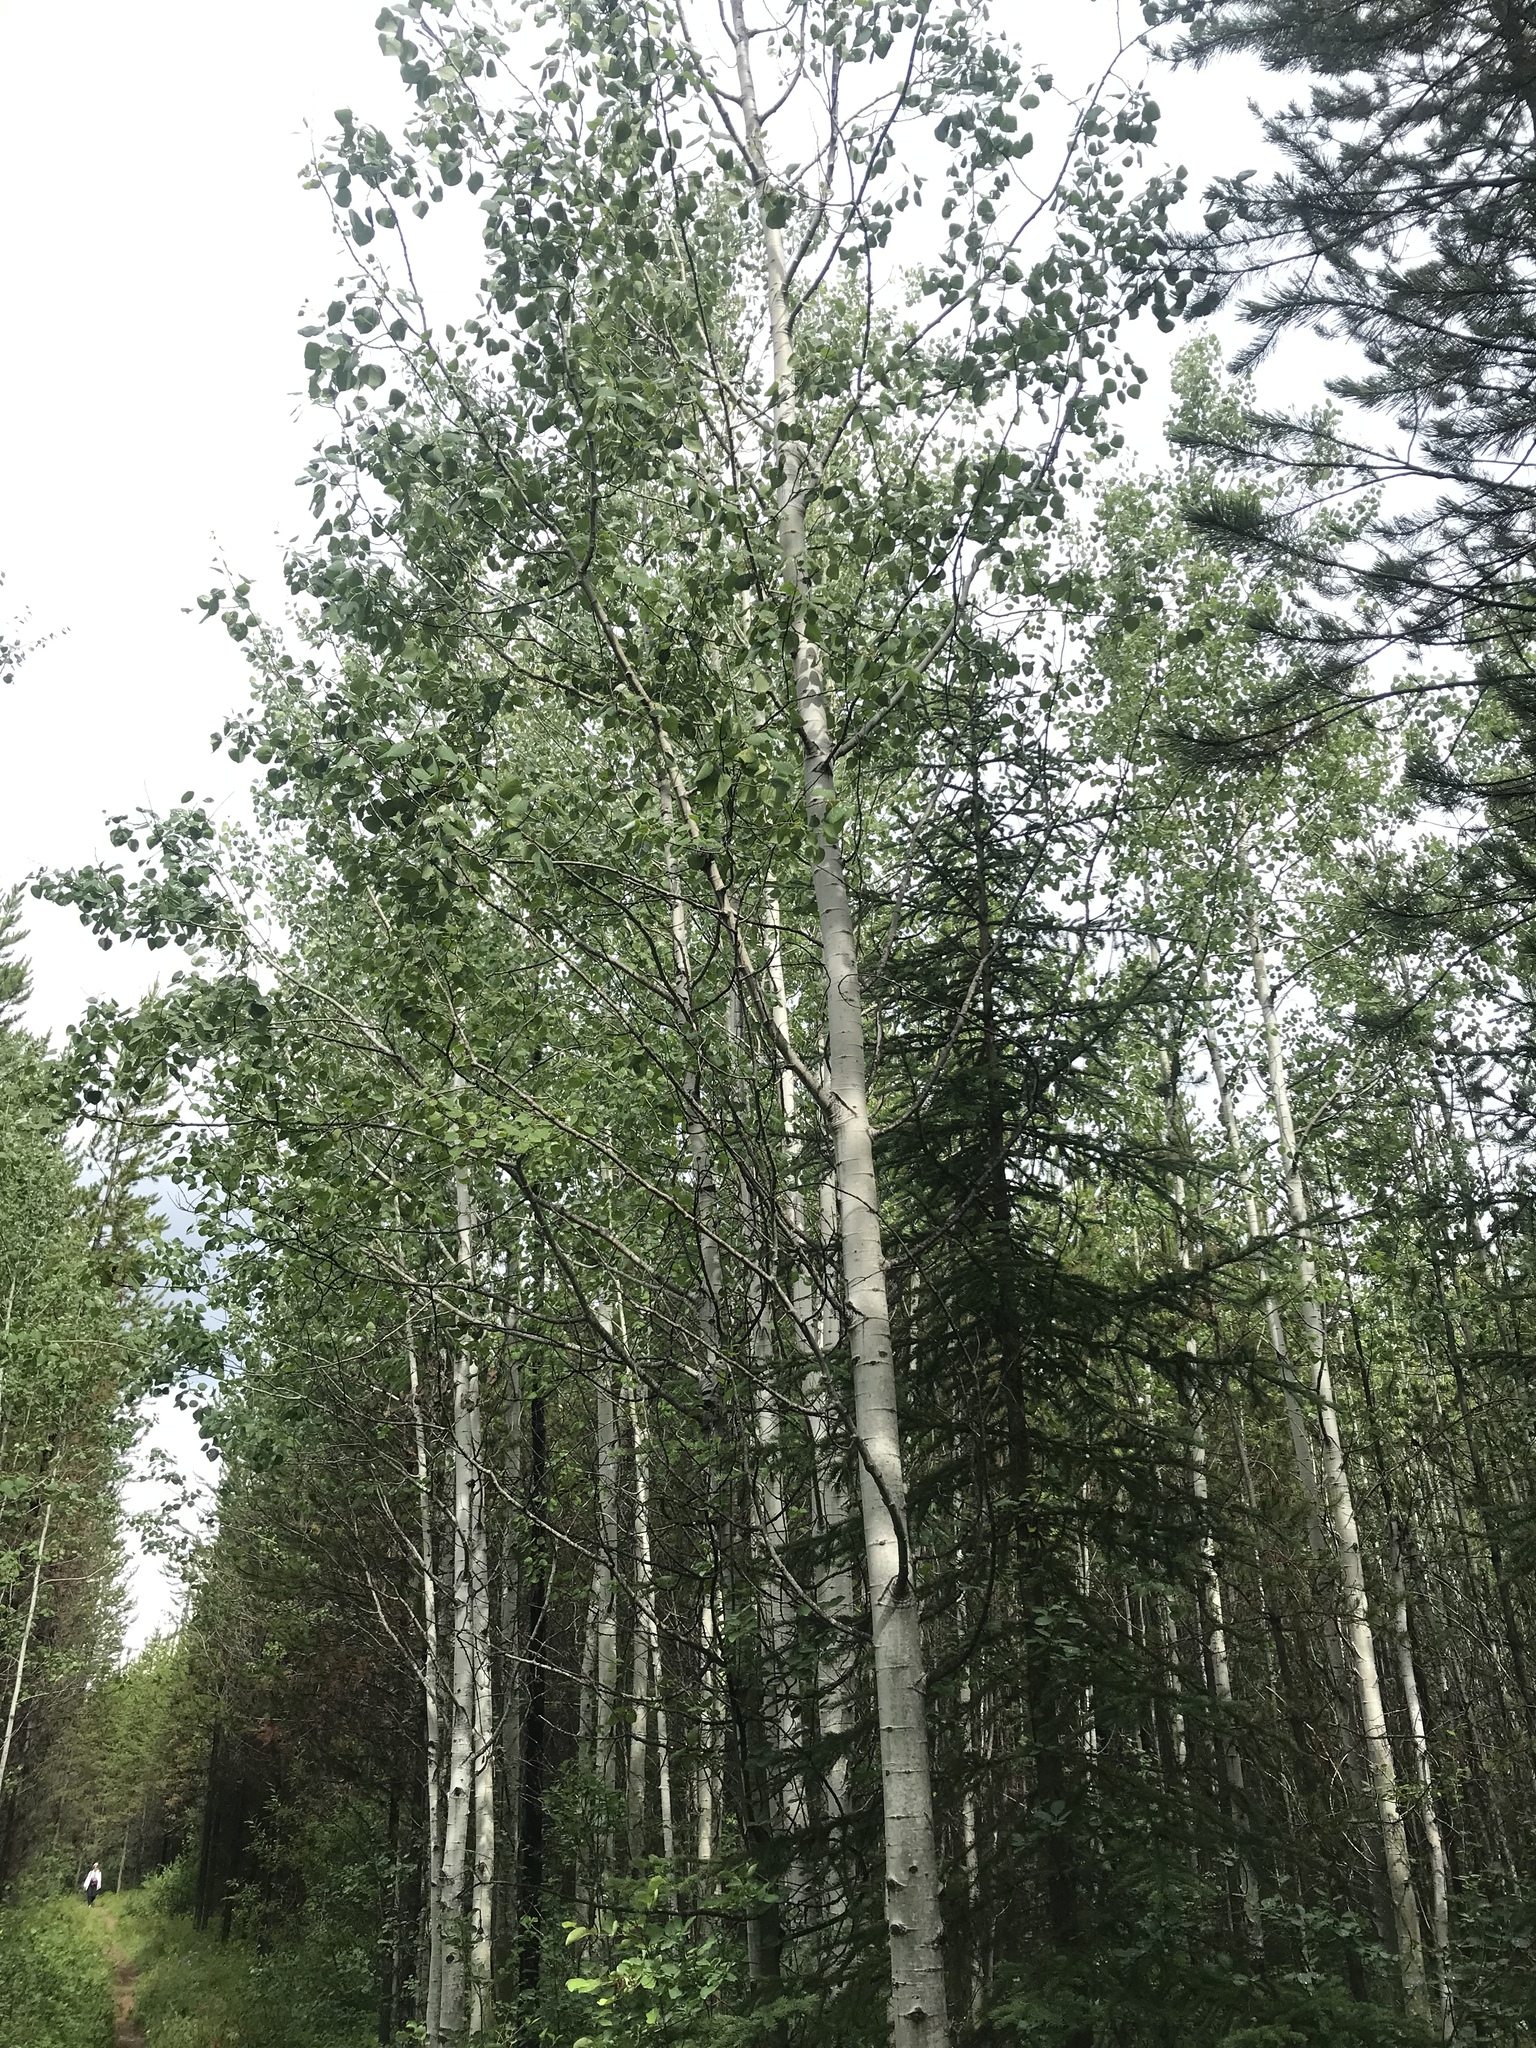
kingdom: Plantae
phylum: Tracheophyta
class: Magnoliopsida
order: Malpighiales
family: Salicaceae
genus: Populus
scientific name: Populus tremuloides
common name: Quaking aspen
